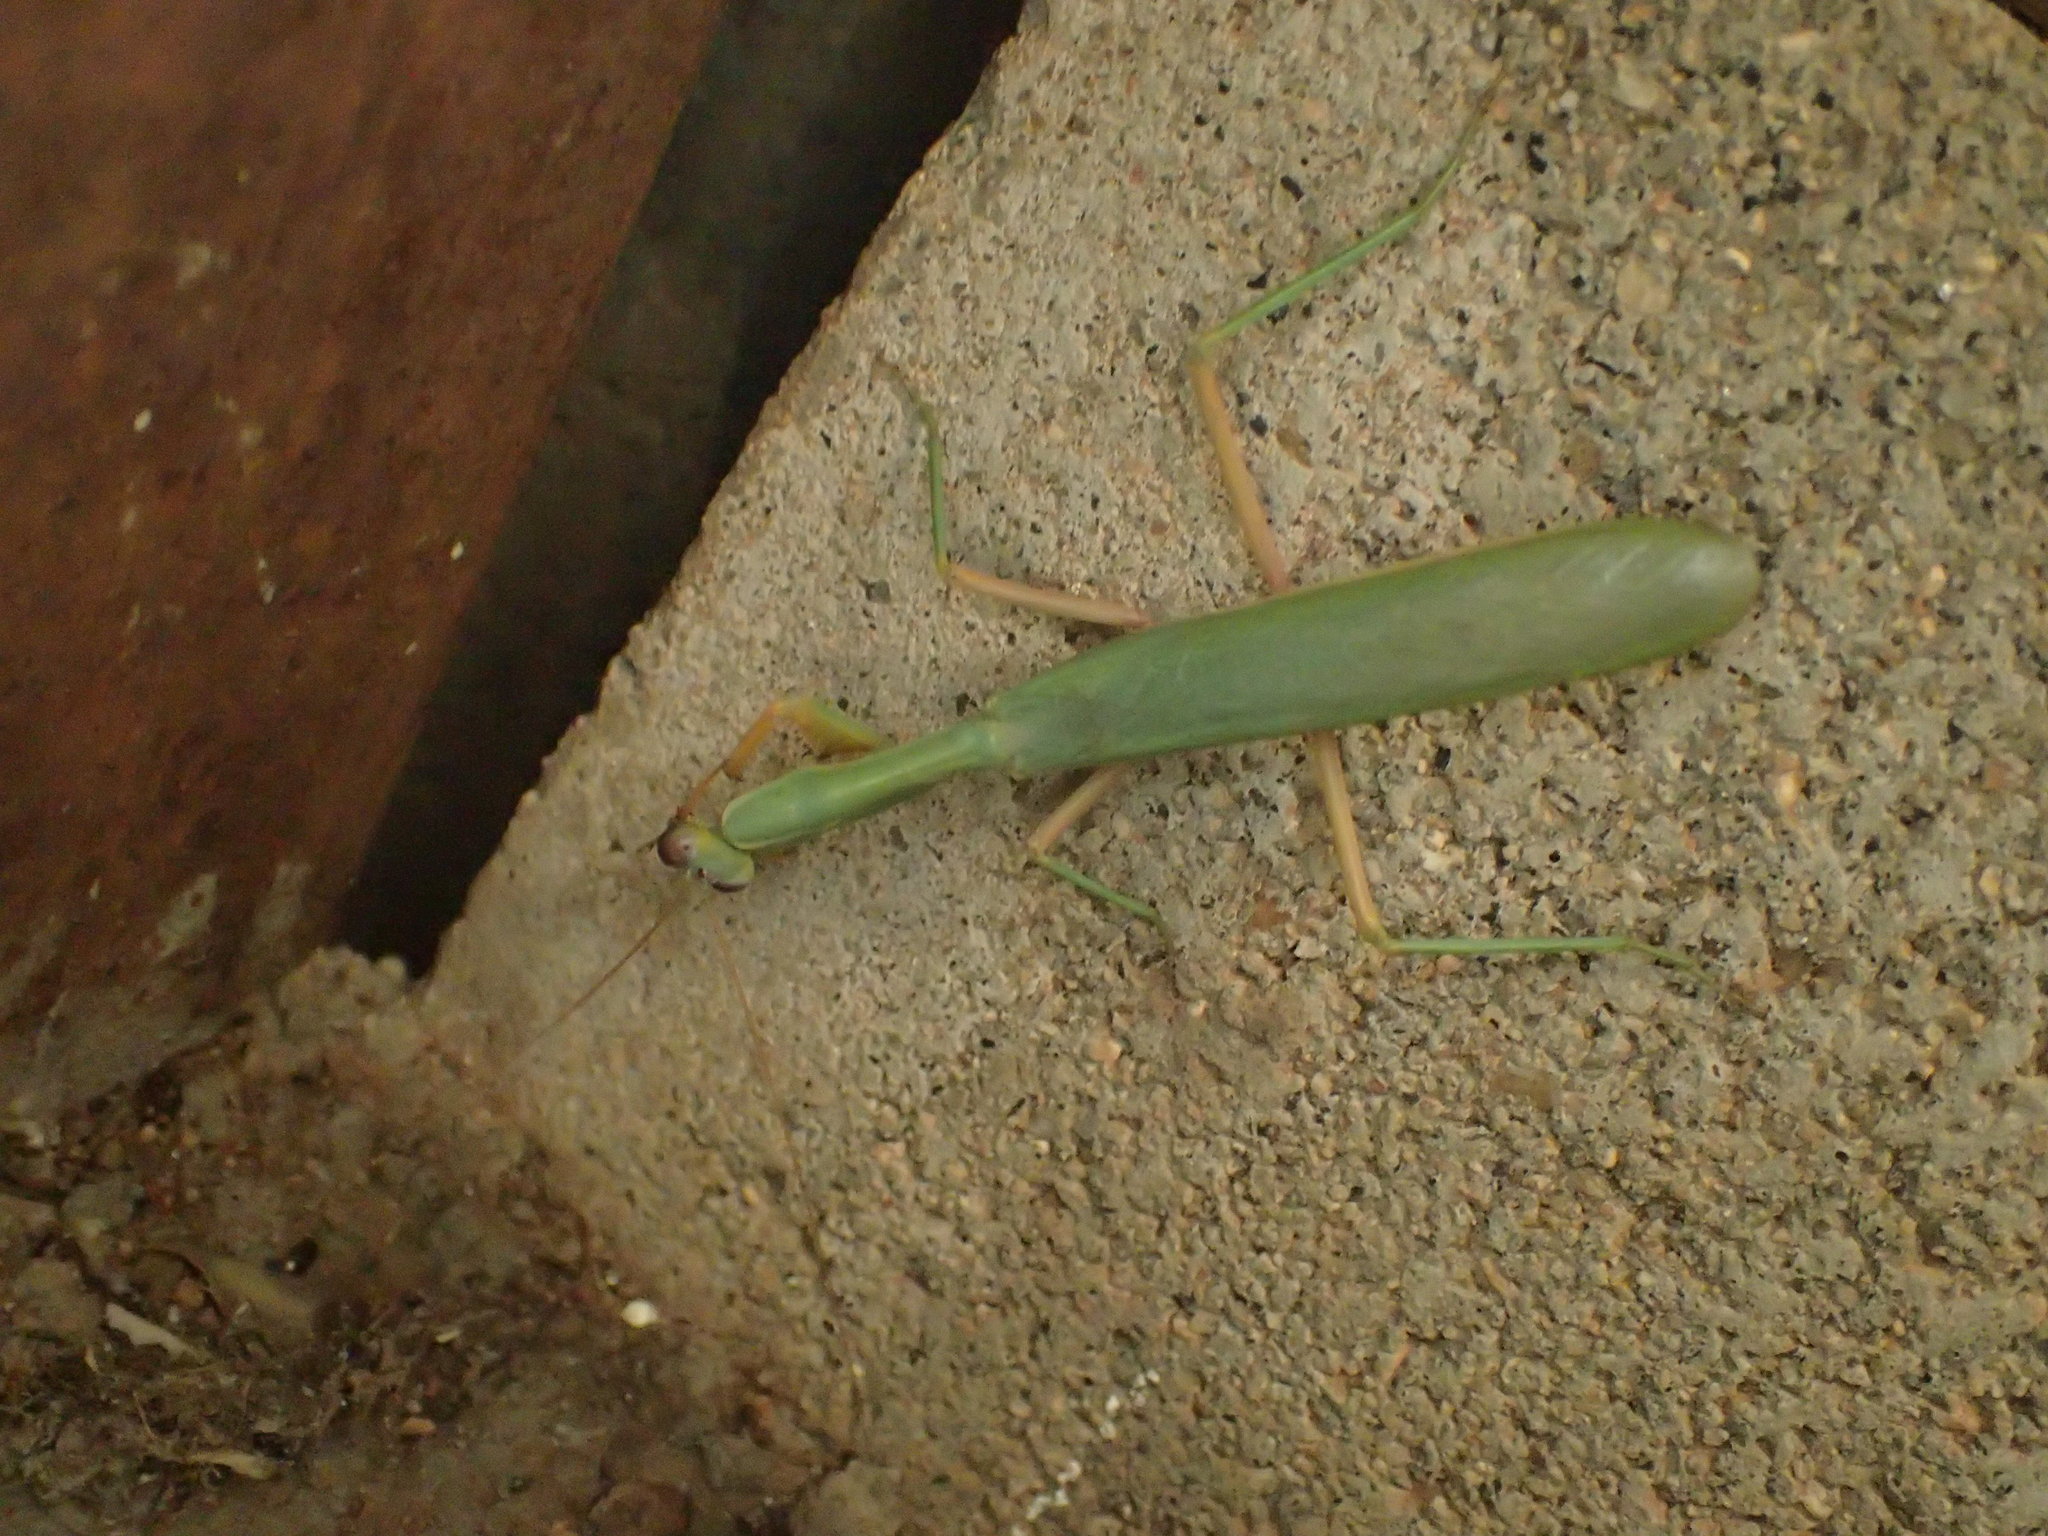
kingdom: Animalia
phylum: Arthropoda
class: Insecta
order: Mantodea
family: Mantidae
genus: Zopheromantis
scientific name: Zopheromantis loripes
